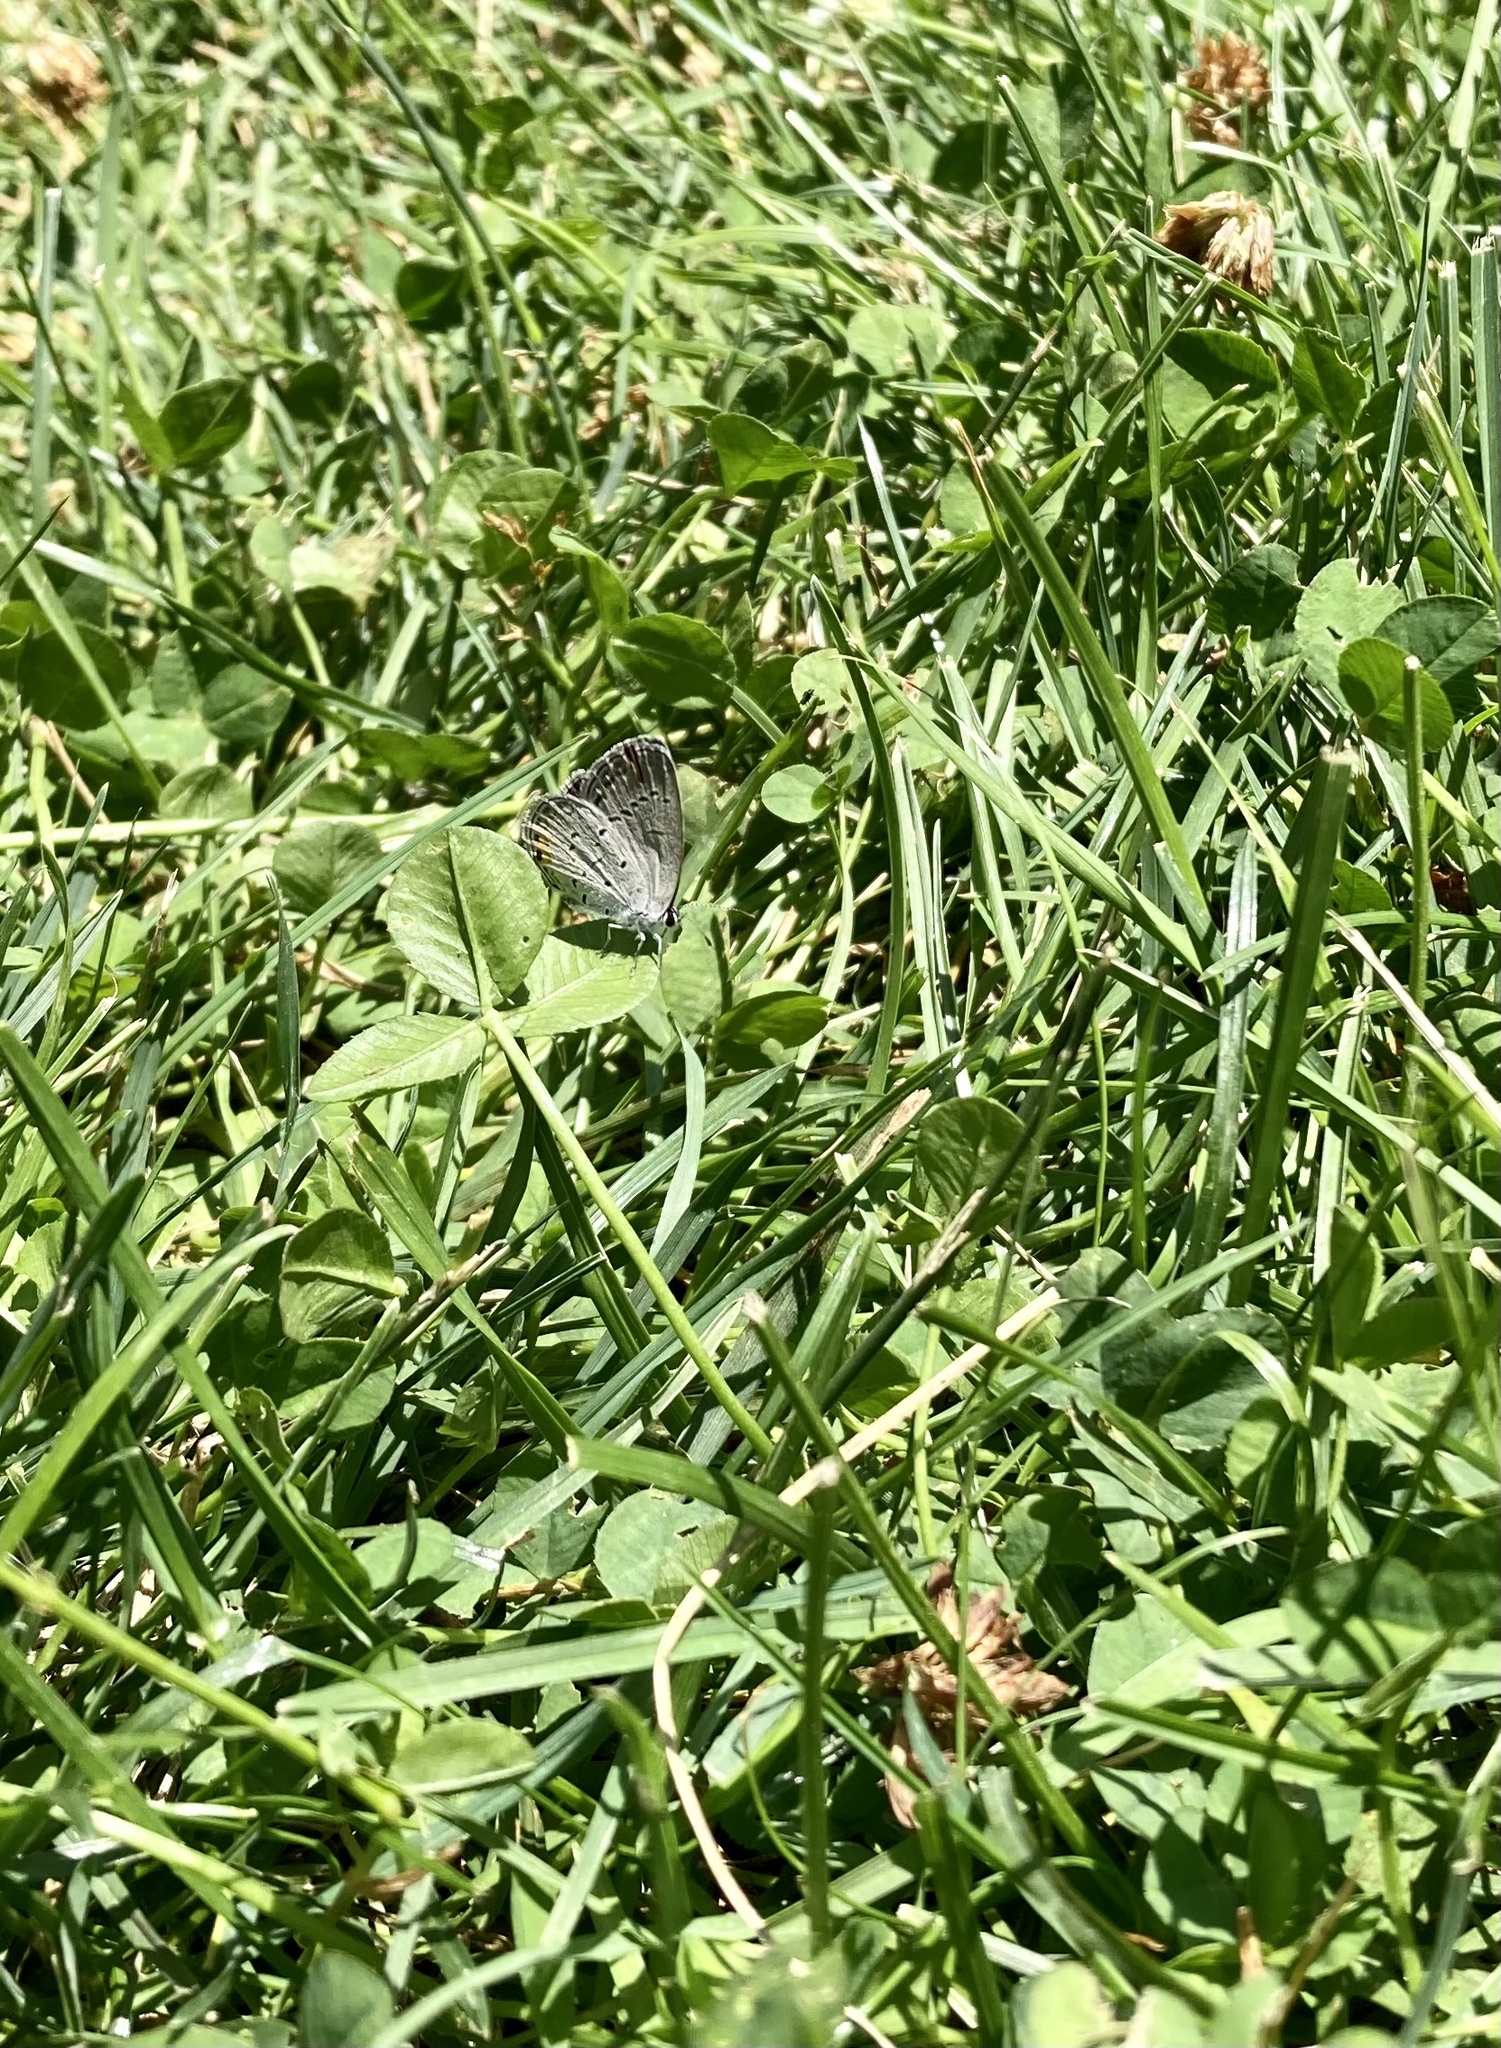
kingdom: Animalia
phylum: Arthropoda
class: Insecta
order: Lepidoptera
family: Lycaenidae
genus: Elkalyce
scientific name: Elkalyce comyntas
